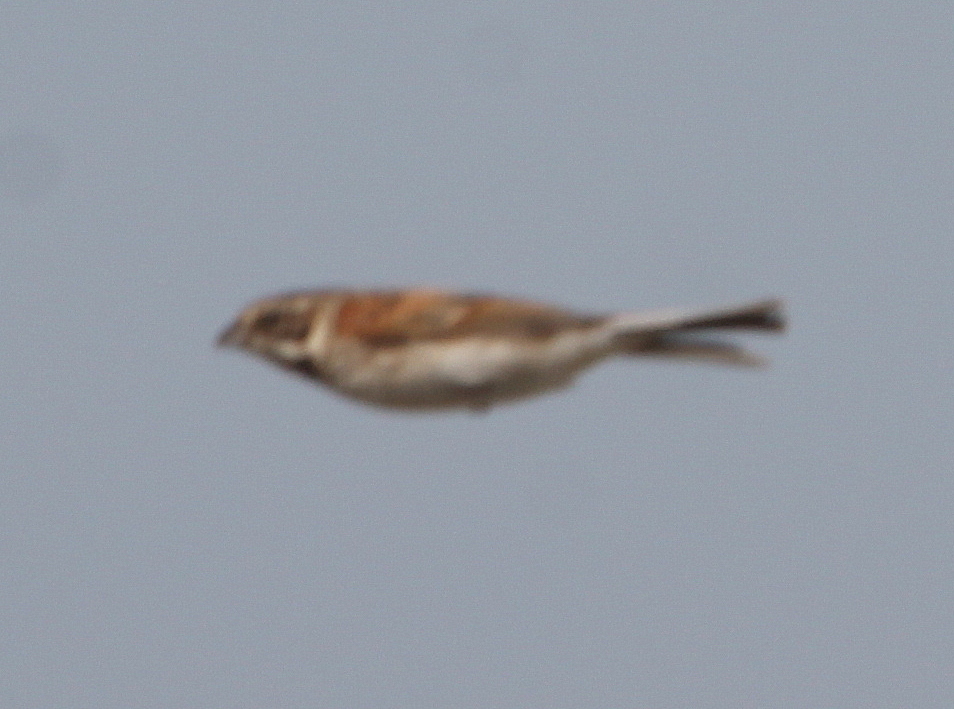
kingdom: Animalia
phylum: Chordata
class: Aves
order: Passeriformes
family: Emberizidae
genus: Emberiza
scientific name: Emberiza schoeniclus
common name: Reed bunting
